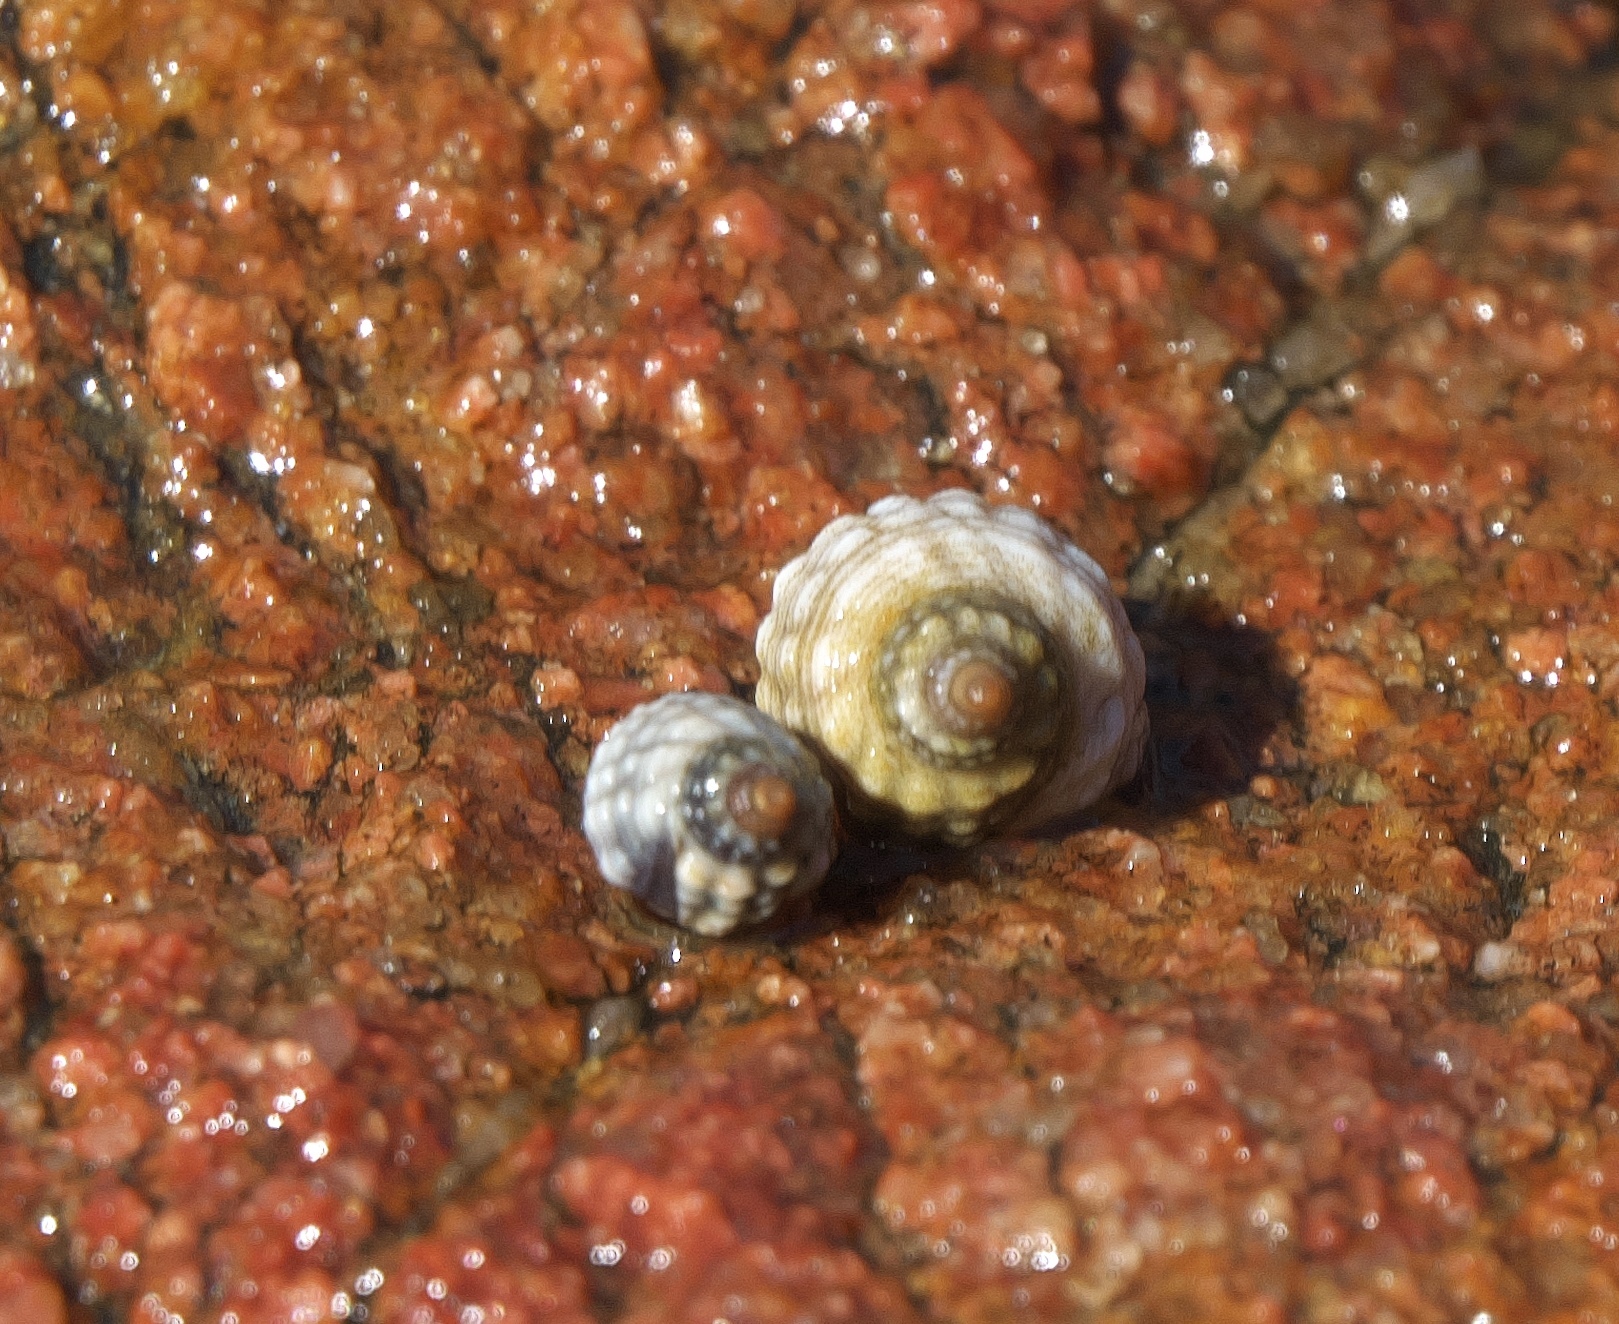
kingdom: Animalia
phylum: Mollusca
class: Gastropoda
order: Littorinimorpha
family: Littorinidae
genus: Echinolittorina
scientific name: Echinolittorina australis
